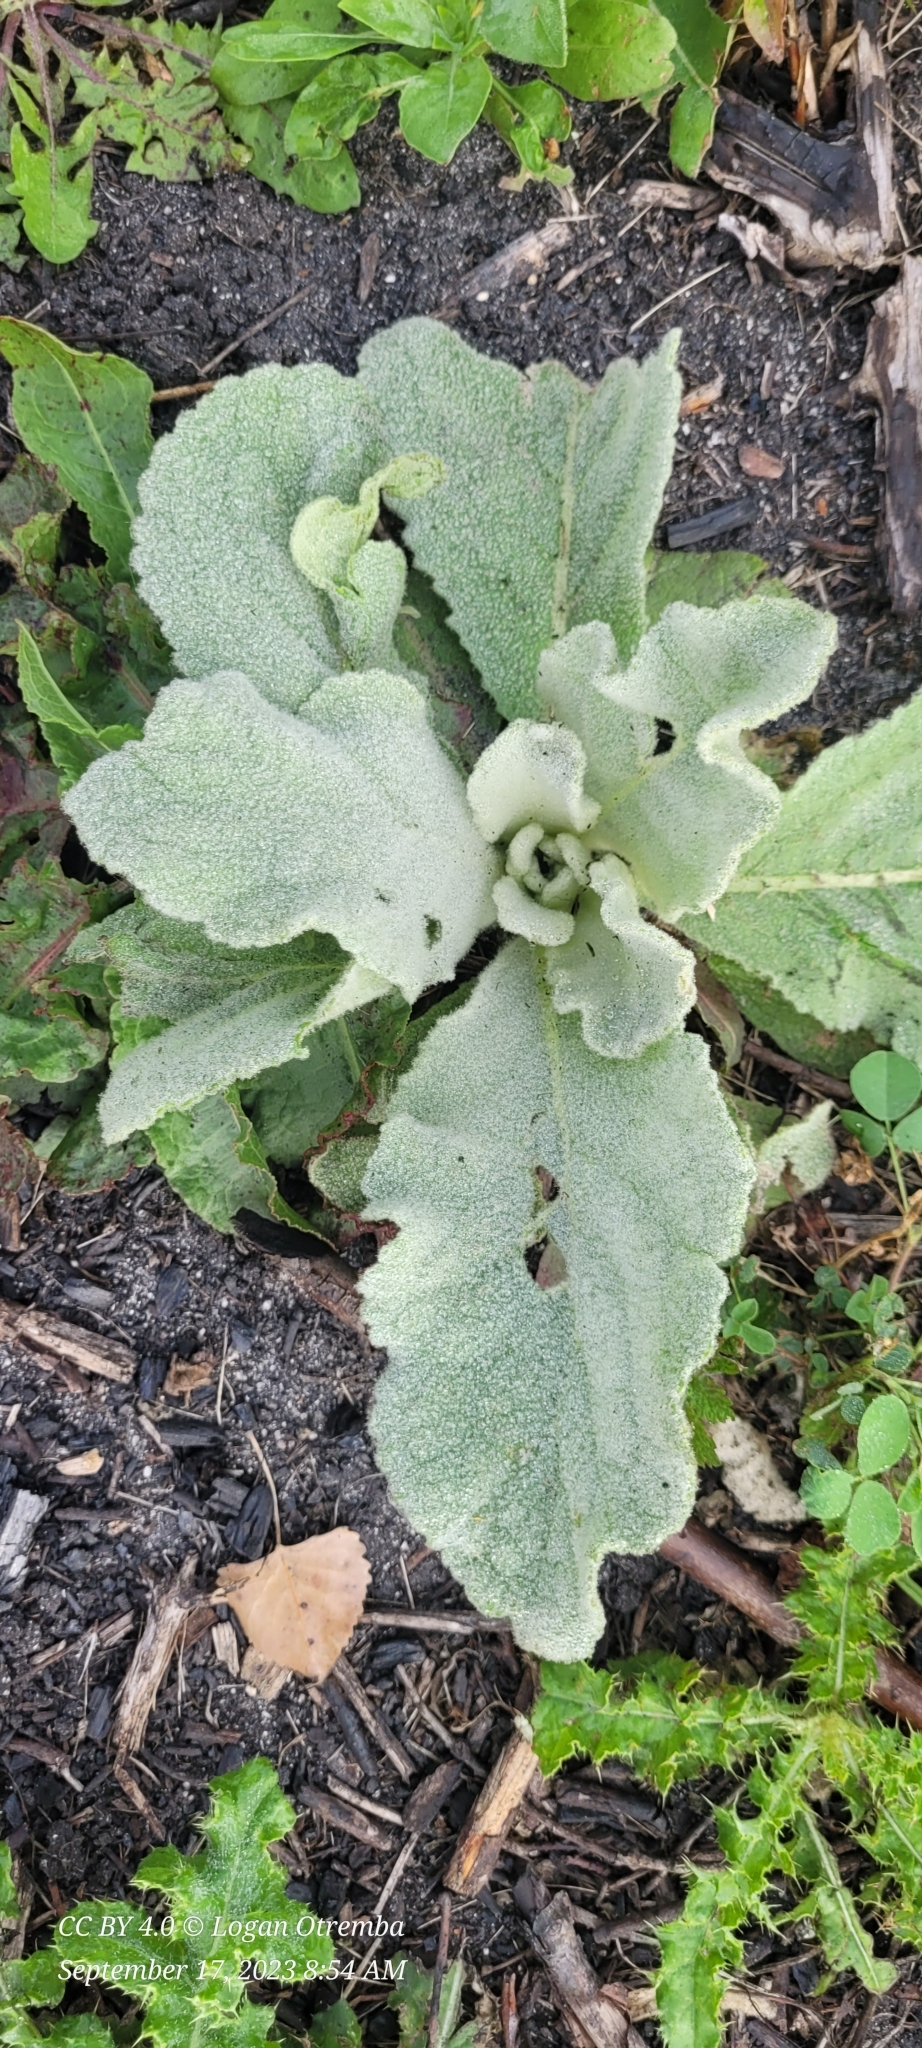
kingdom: Plantae
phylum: Tracheophyta
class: Magnoliopsida
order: Lamiales
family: Scrophulariaceae
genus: Verbascum
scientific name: Verbascum thapsus
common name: Common mullein
